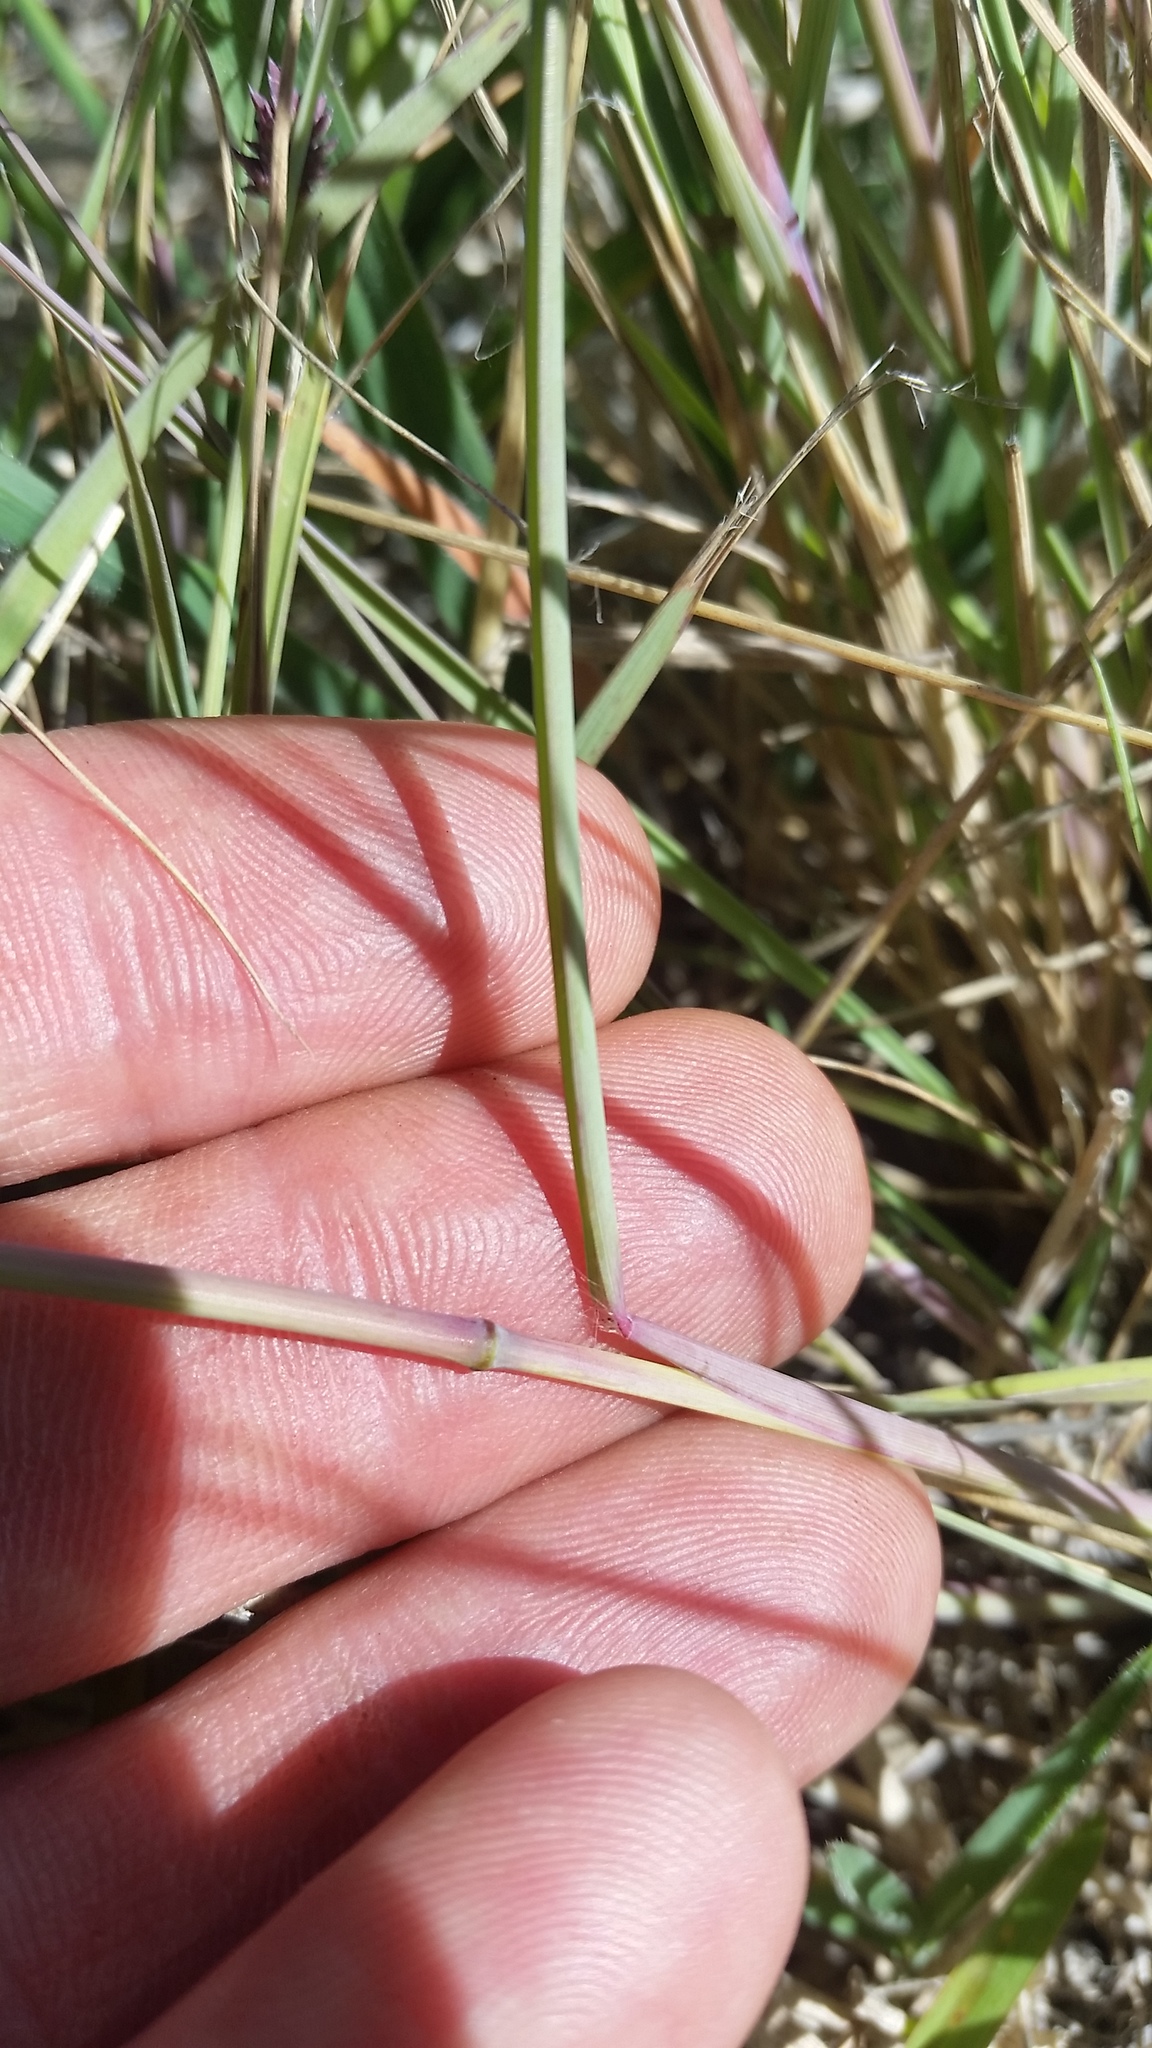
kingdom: Plantae
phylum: Tracheophyta
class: Liliopsida
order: Poales
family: Poaceae
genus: Eragrostis
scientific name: Eragrostis elongata
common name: Long lovegrass
